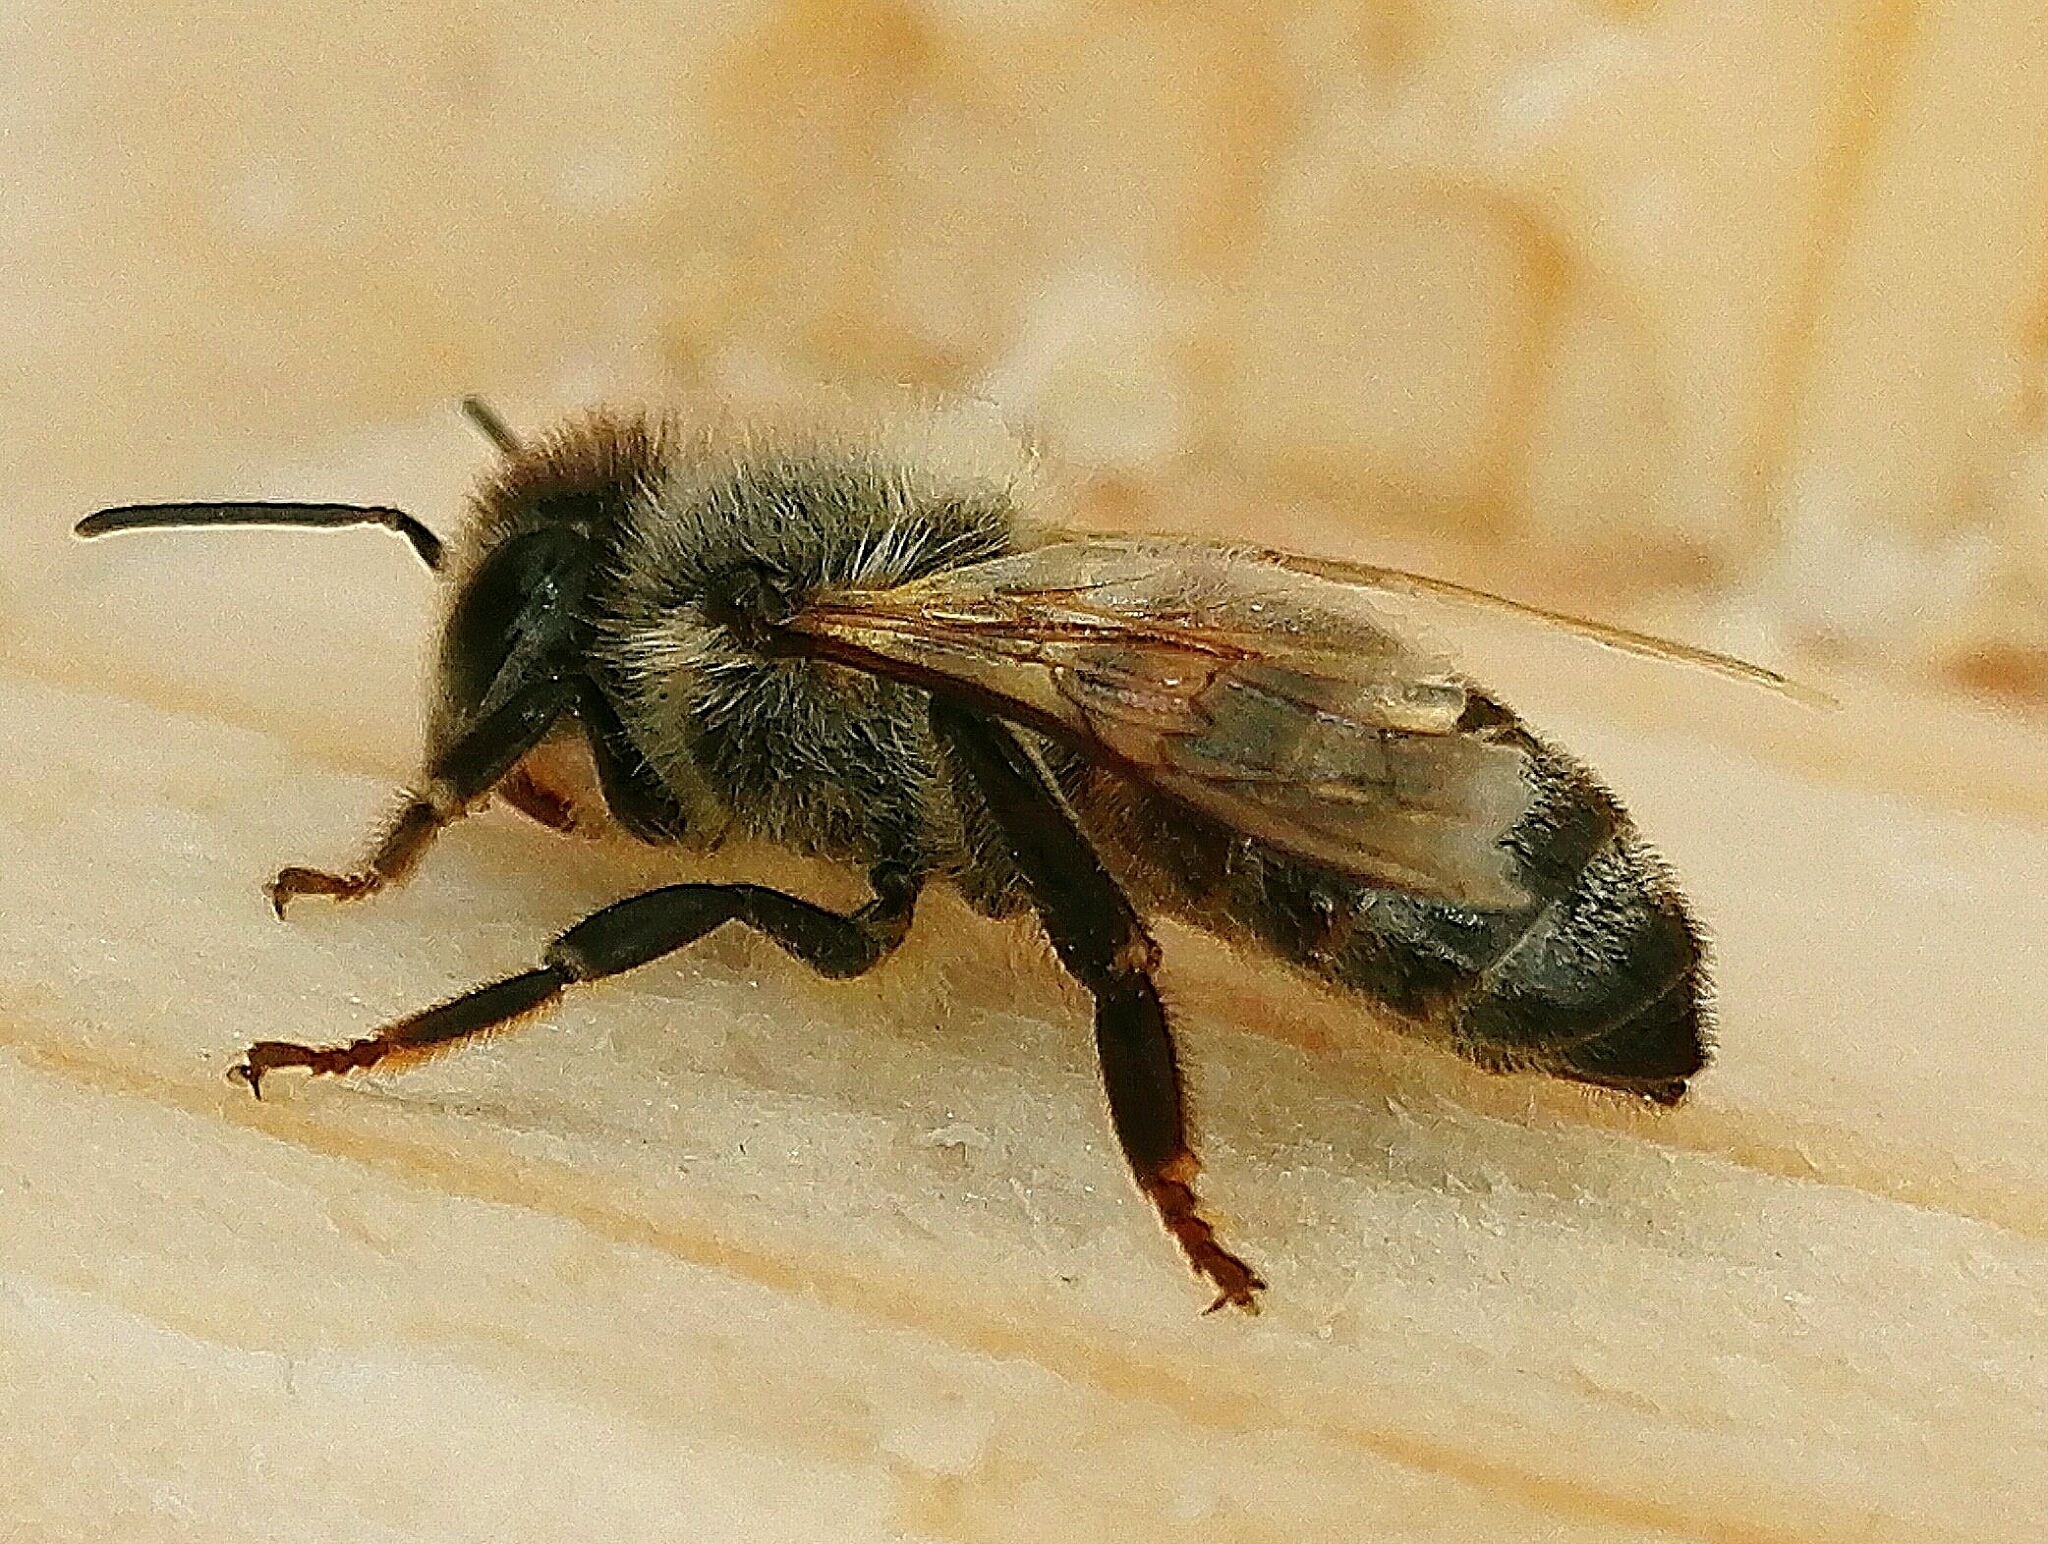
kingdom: Animalia
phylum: Arthropoda
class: Insecta
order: Hymenoptera
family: Apidae
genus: Apis
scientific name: Apis mellifera
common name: Honey bee
